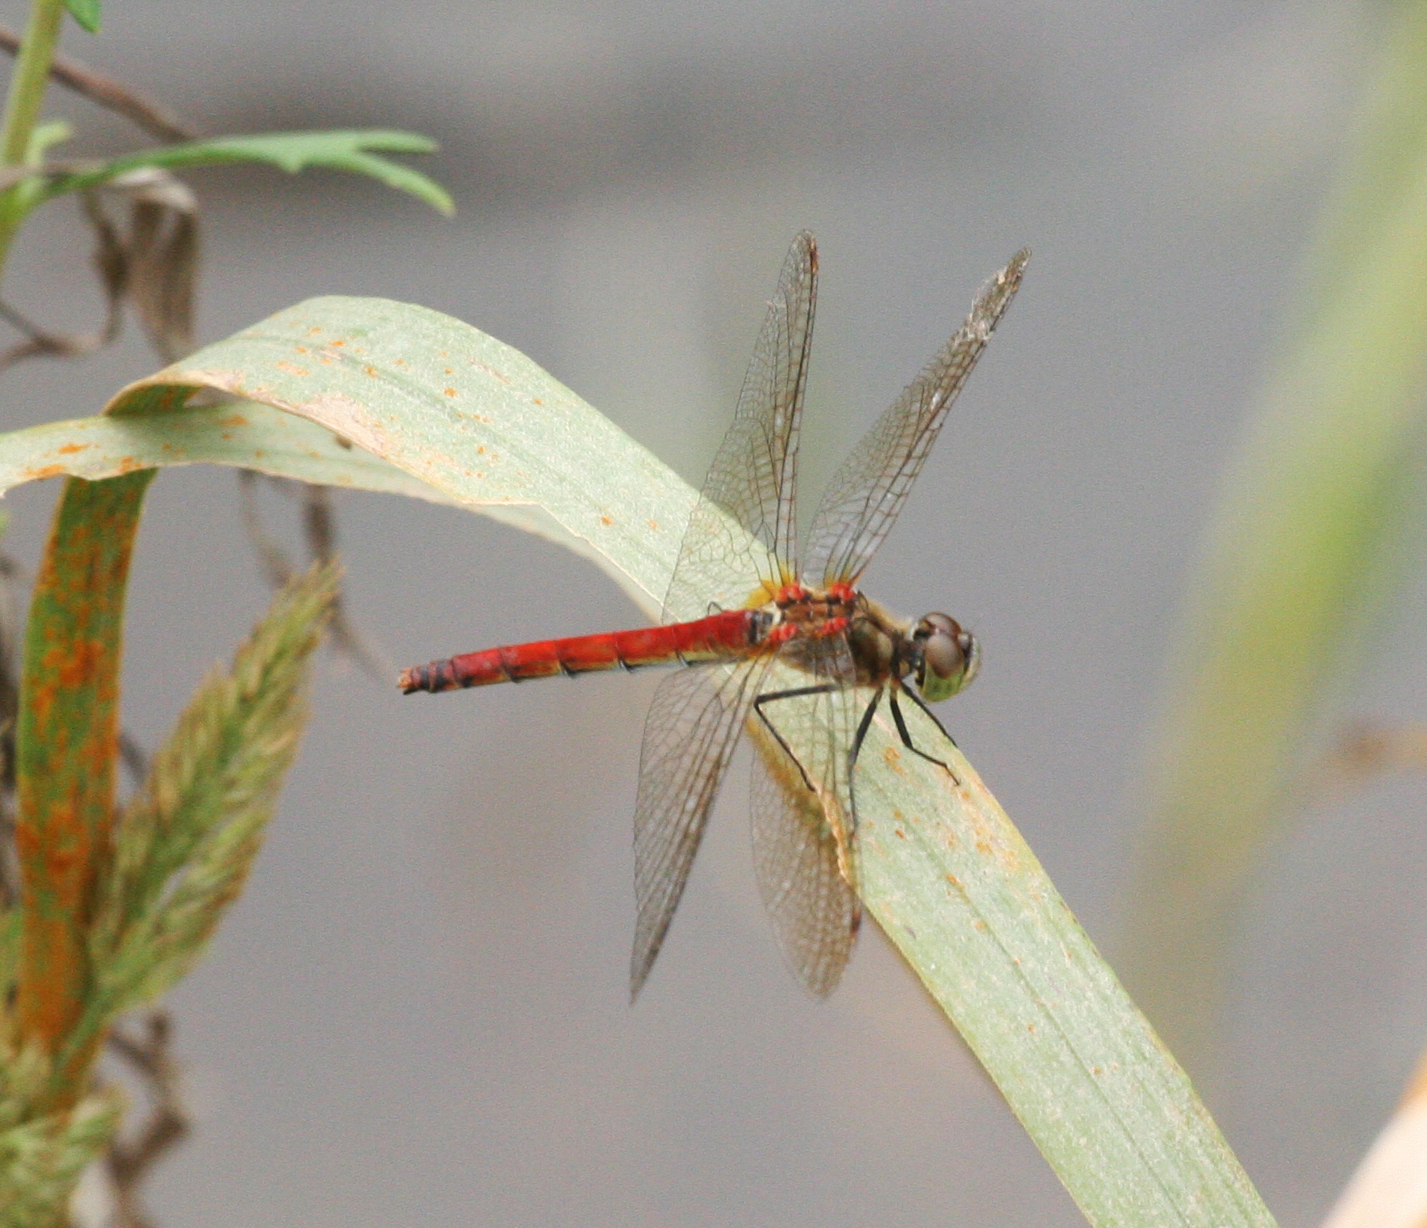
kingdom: Animalia
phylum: Arthropoda
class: Insecta
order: Odonata
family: Libellulidae
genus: Sympetrum
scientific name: Sympetrum cordulegaster
